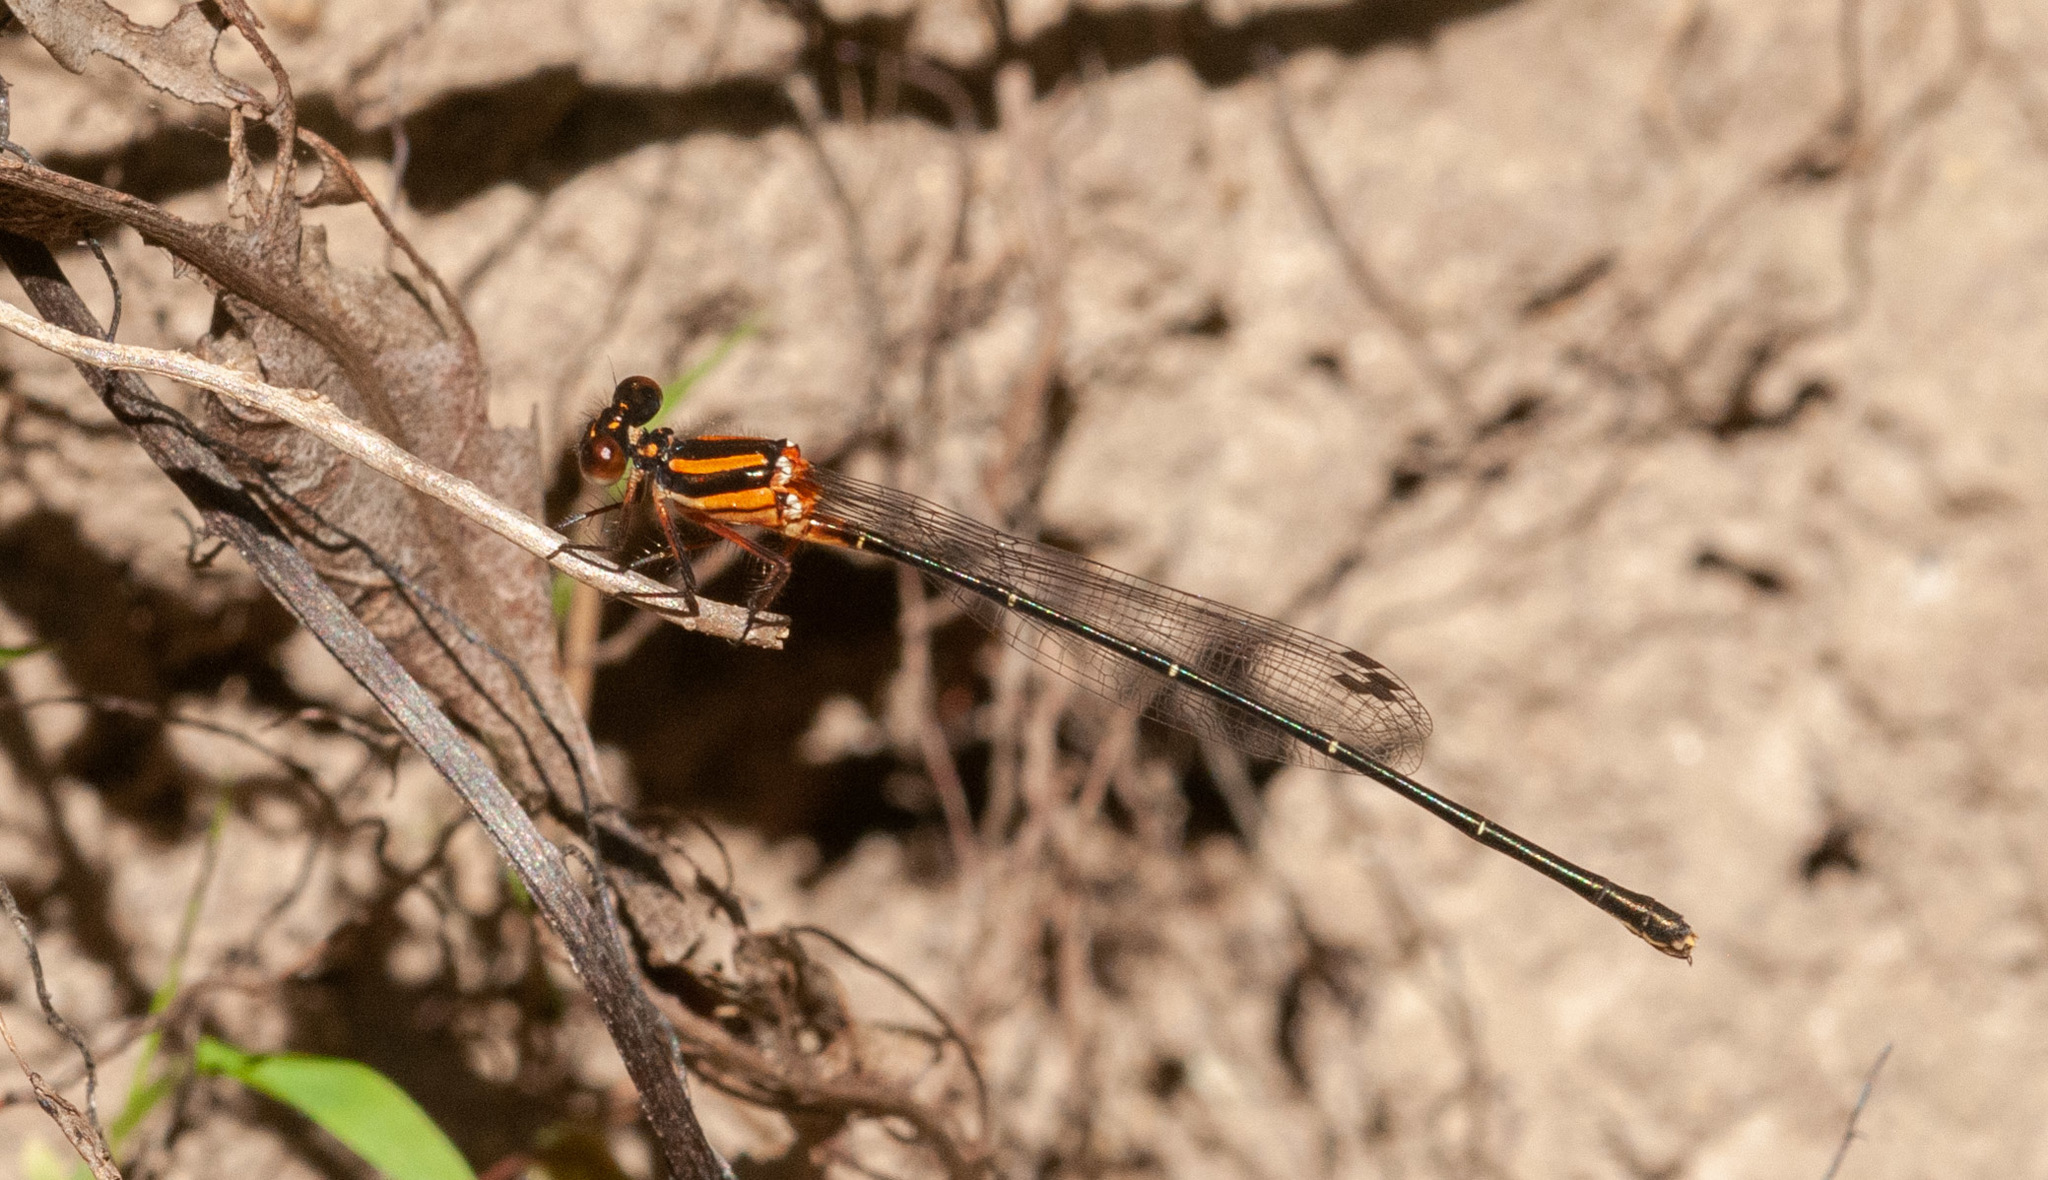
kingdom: Animalia
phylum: Arthropoda
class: Insecta
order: Odonata
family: Platycnemididae
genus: Nososticta
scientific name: Nososticta solida
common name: Orange threadtail
